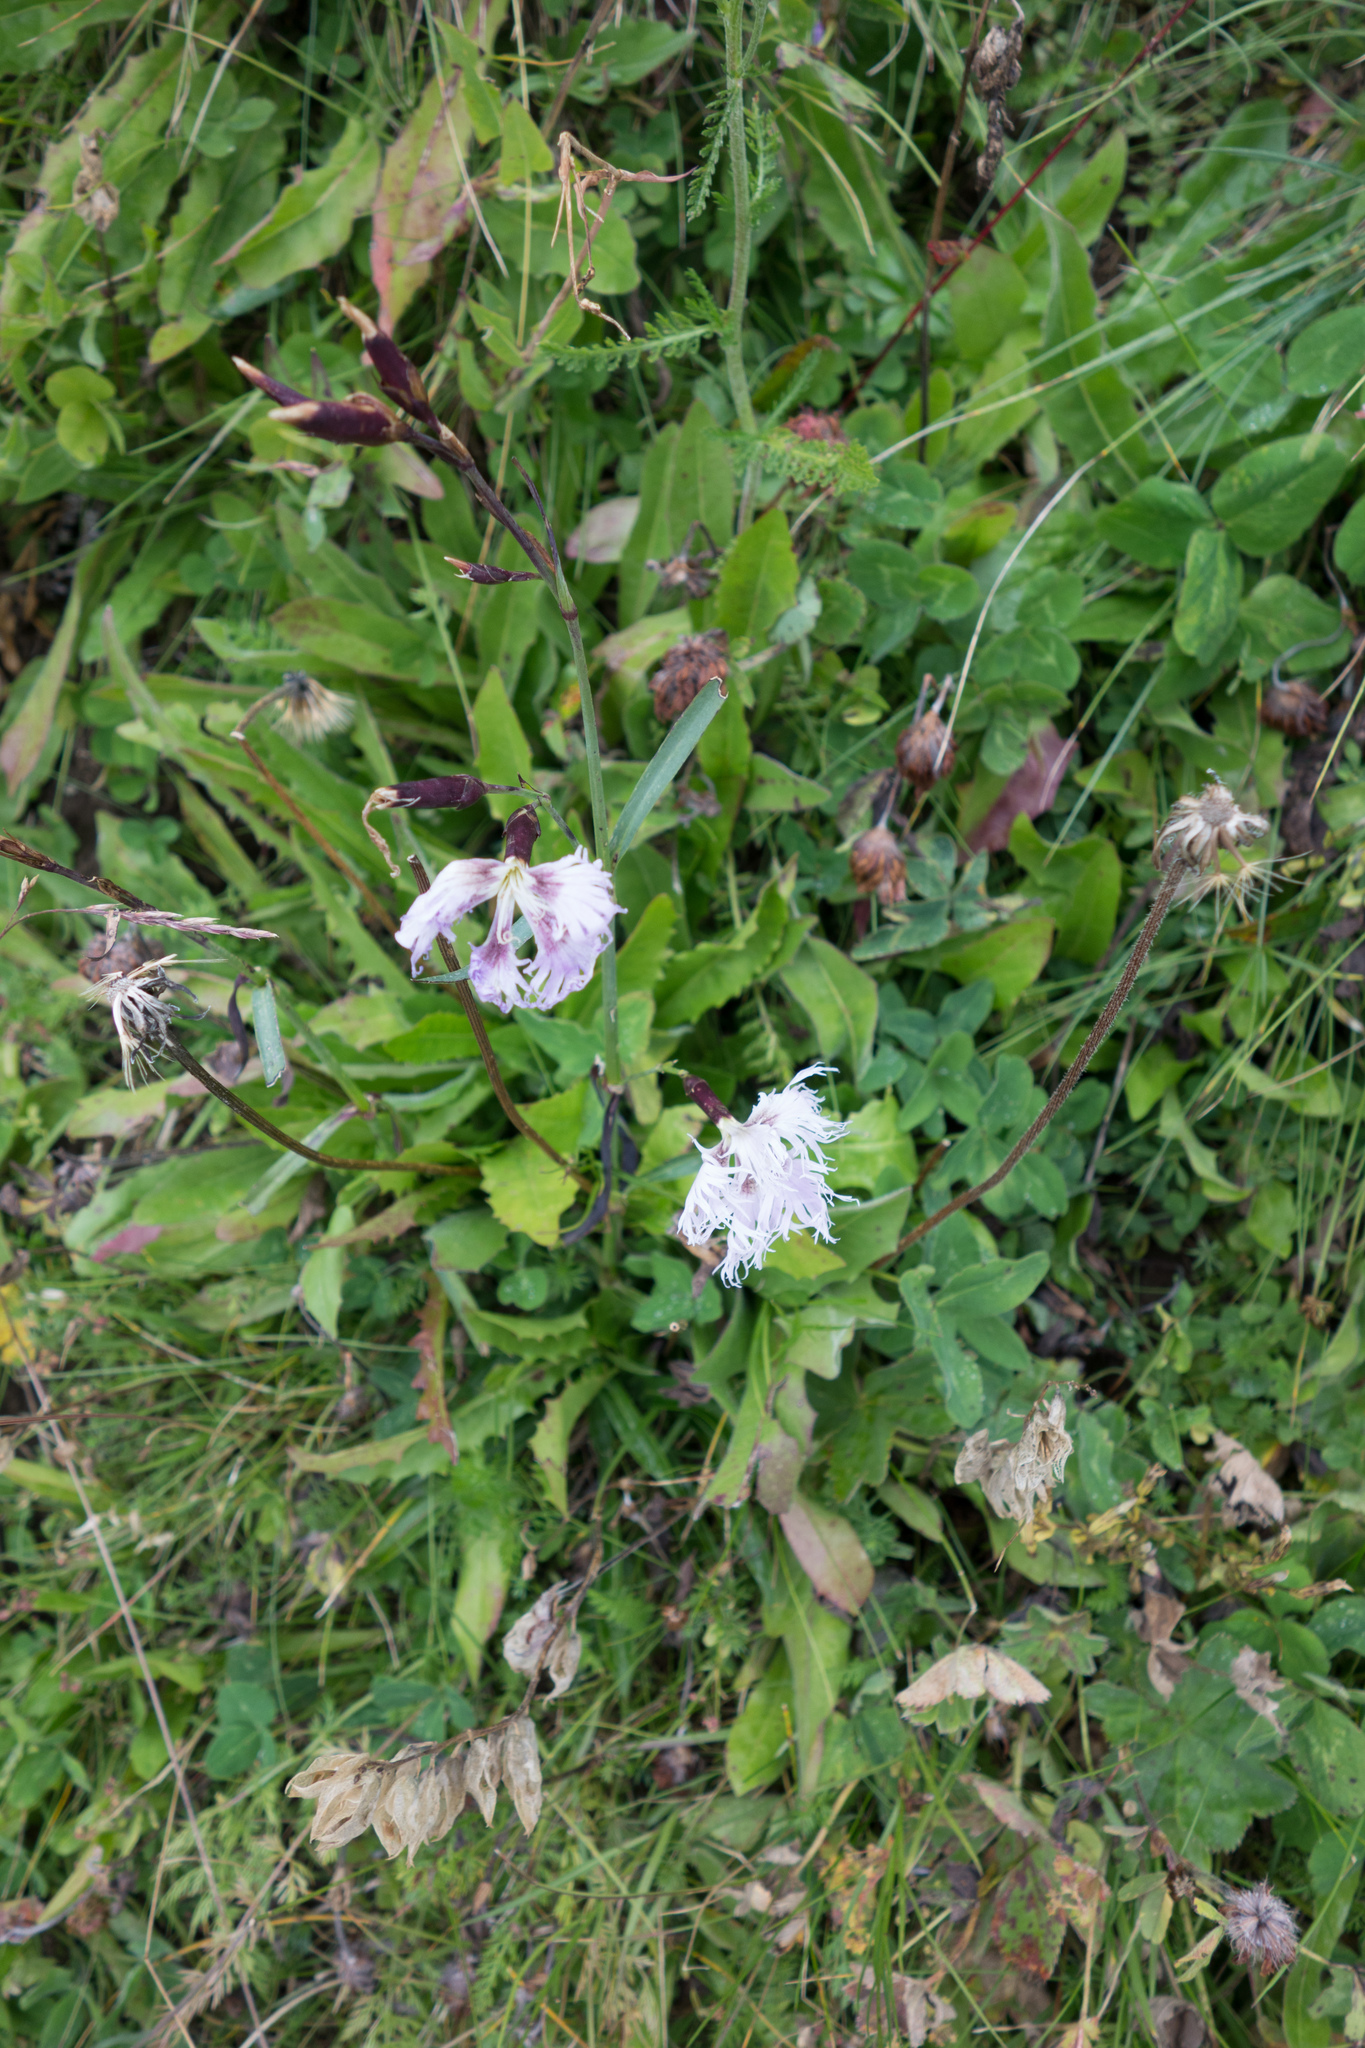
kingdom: Plantae
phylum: Tracheophyta
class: Magnoliopsida
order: Caryophyllales
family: Caryophyllaceae
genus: Dianthus
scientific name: Dianthus superbus
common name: Fringed pink
